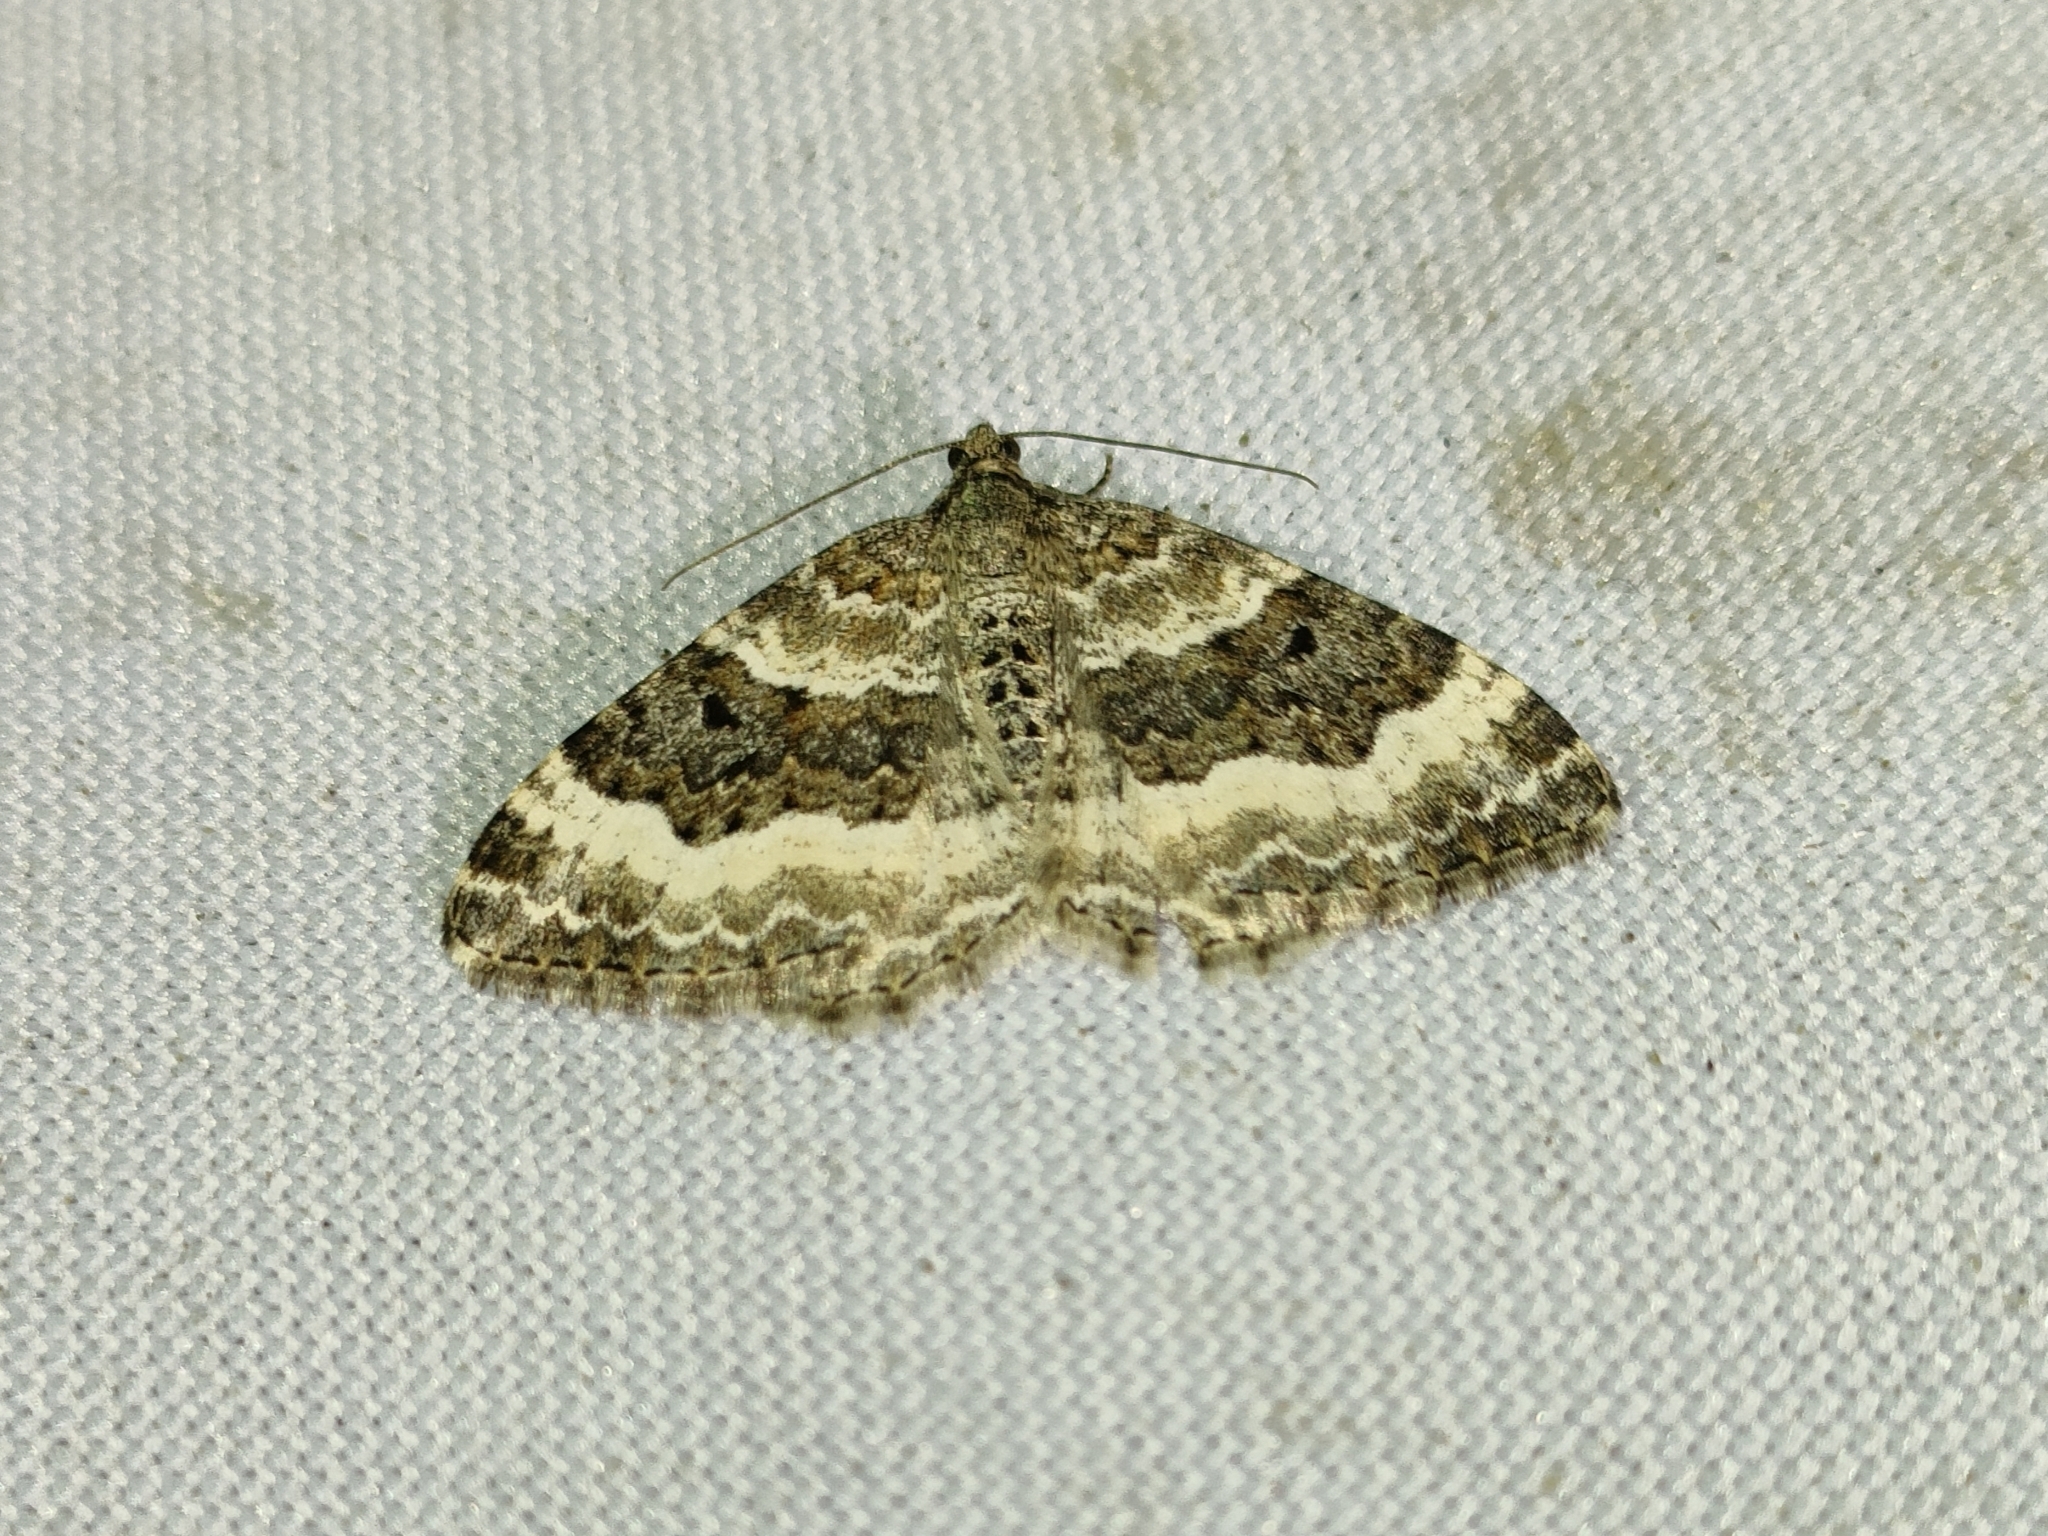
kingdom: Animalia
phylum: Arthropoda
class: Insecta
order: Lepidoptera
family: Geometridae
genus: Epirrhoe
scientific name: Epirrhoe alternata
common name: Common carpet
